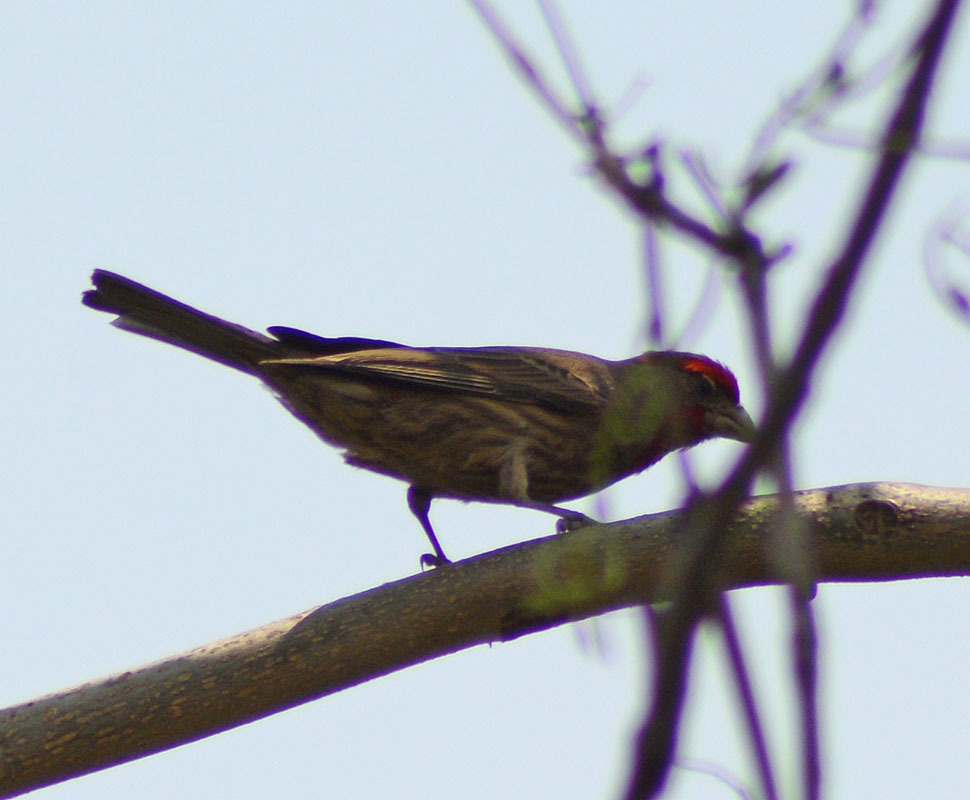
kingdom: Animalia
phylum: Chordata
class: Aves
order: Passeriformes
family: Fringillidae
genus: Haemorhous
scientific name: Haemorhous mexicanus
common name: House finch
